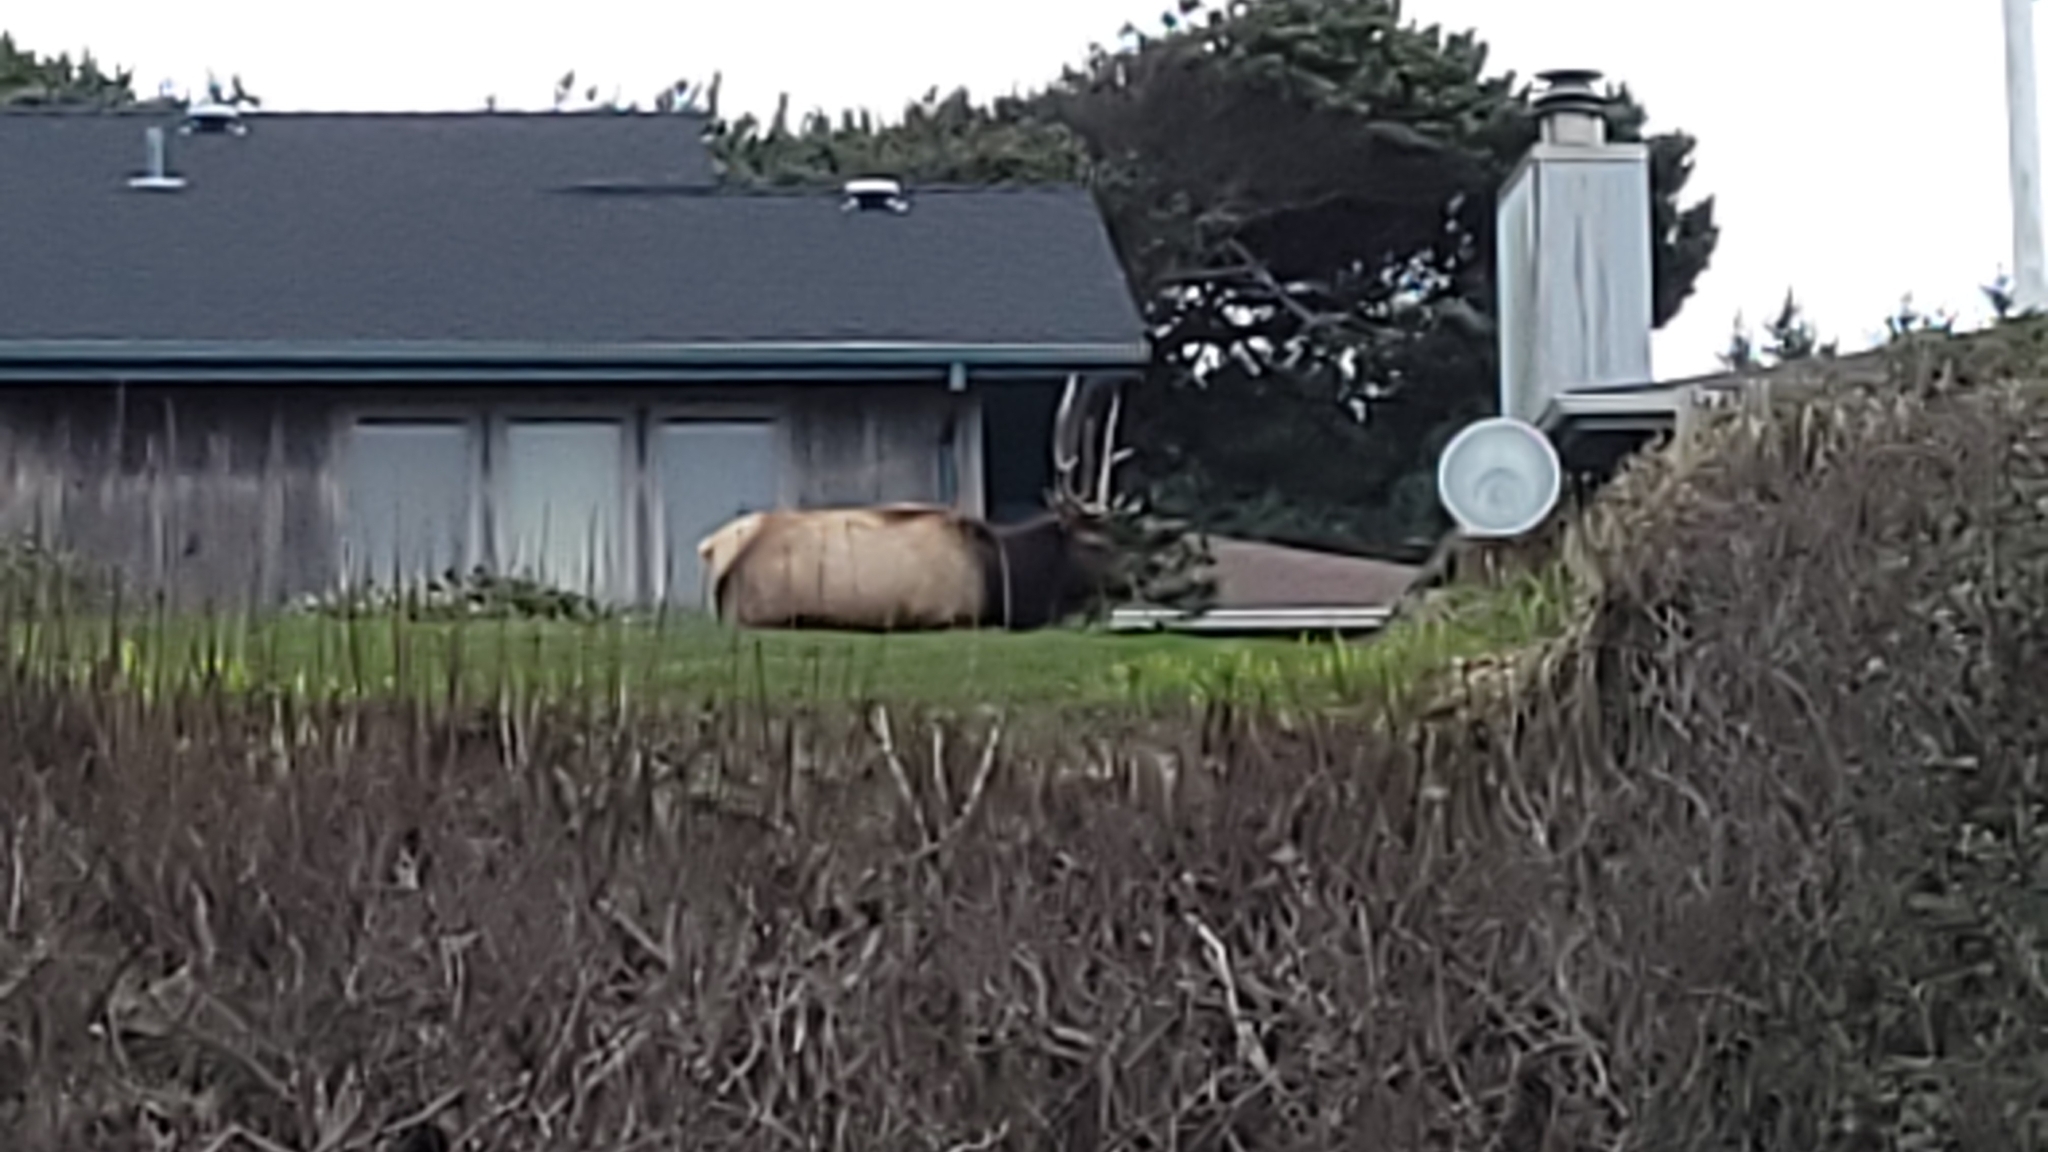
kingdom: Animalia
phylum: Chordata
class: Mammalia
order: Artiodactyla
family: Cervidae
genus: Cervus
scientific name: Cervus elaphus
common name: Red deer
